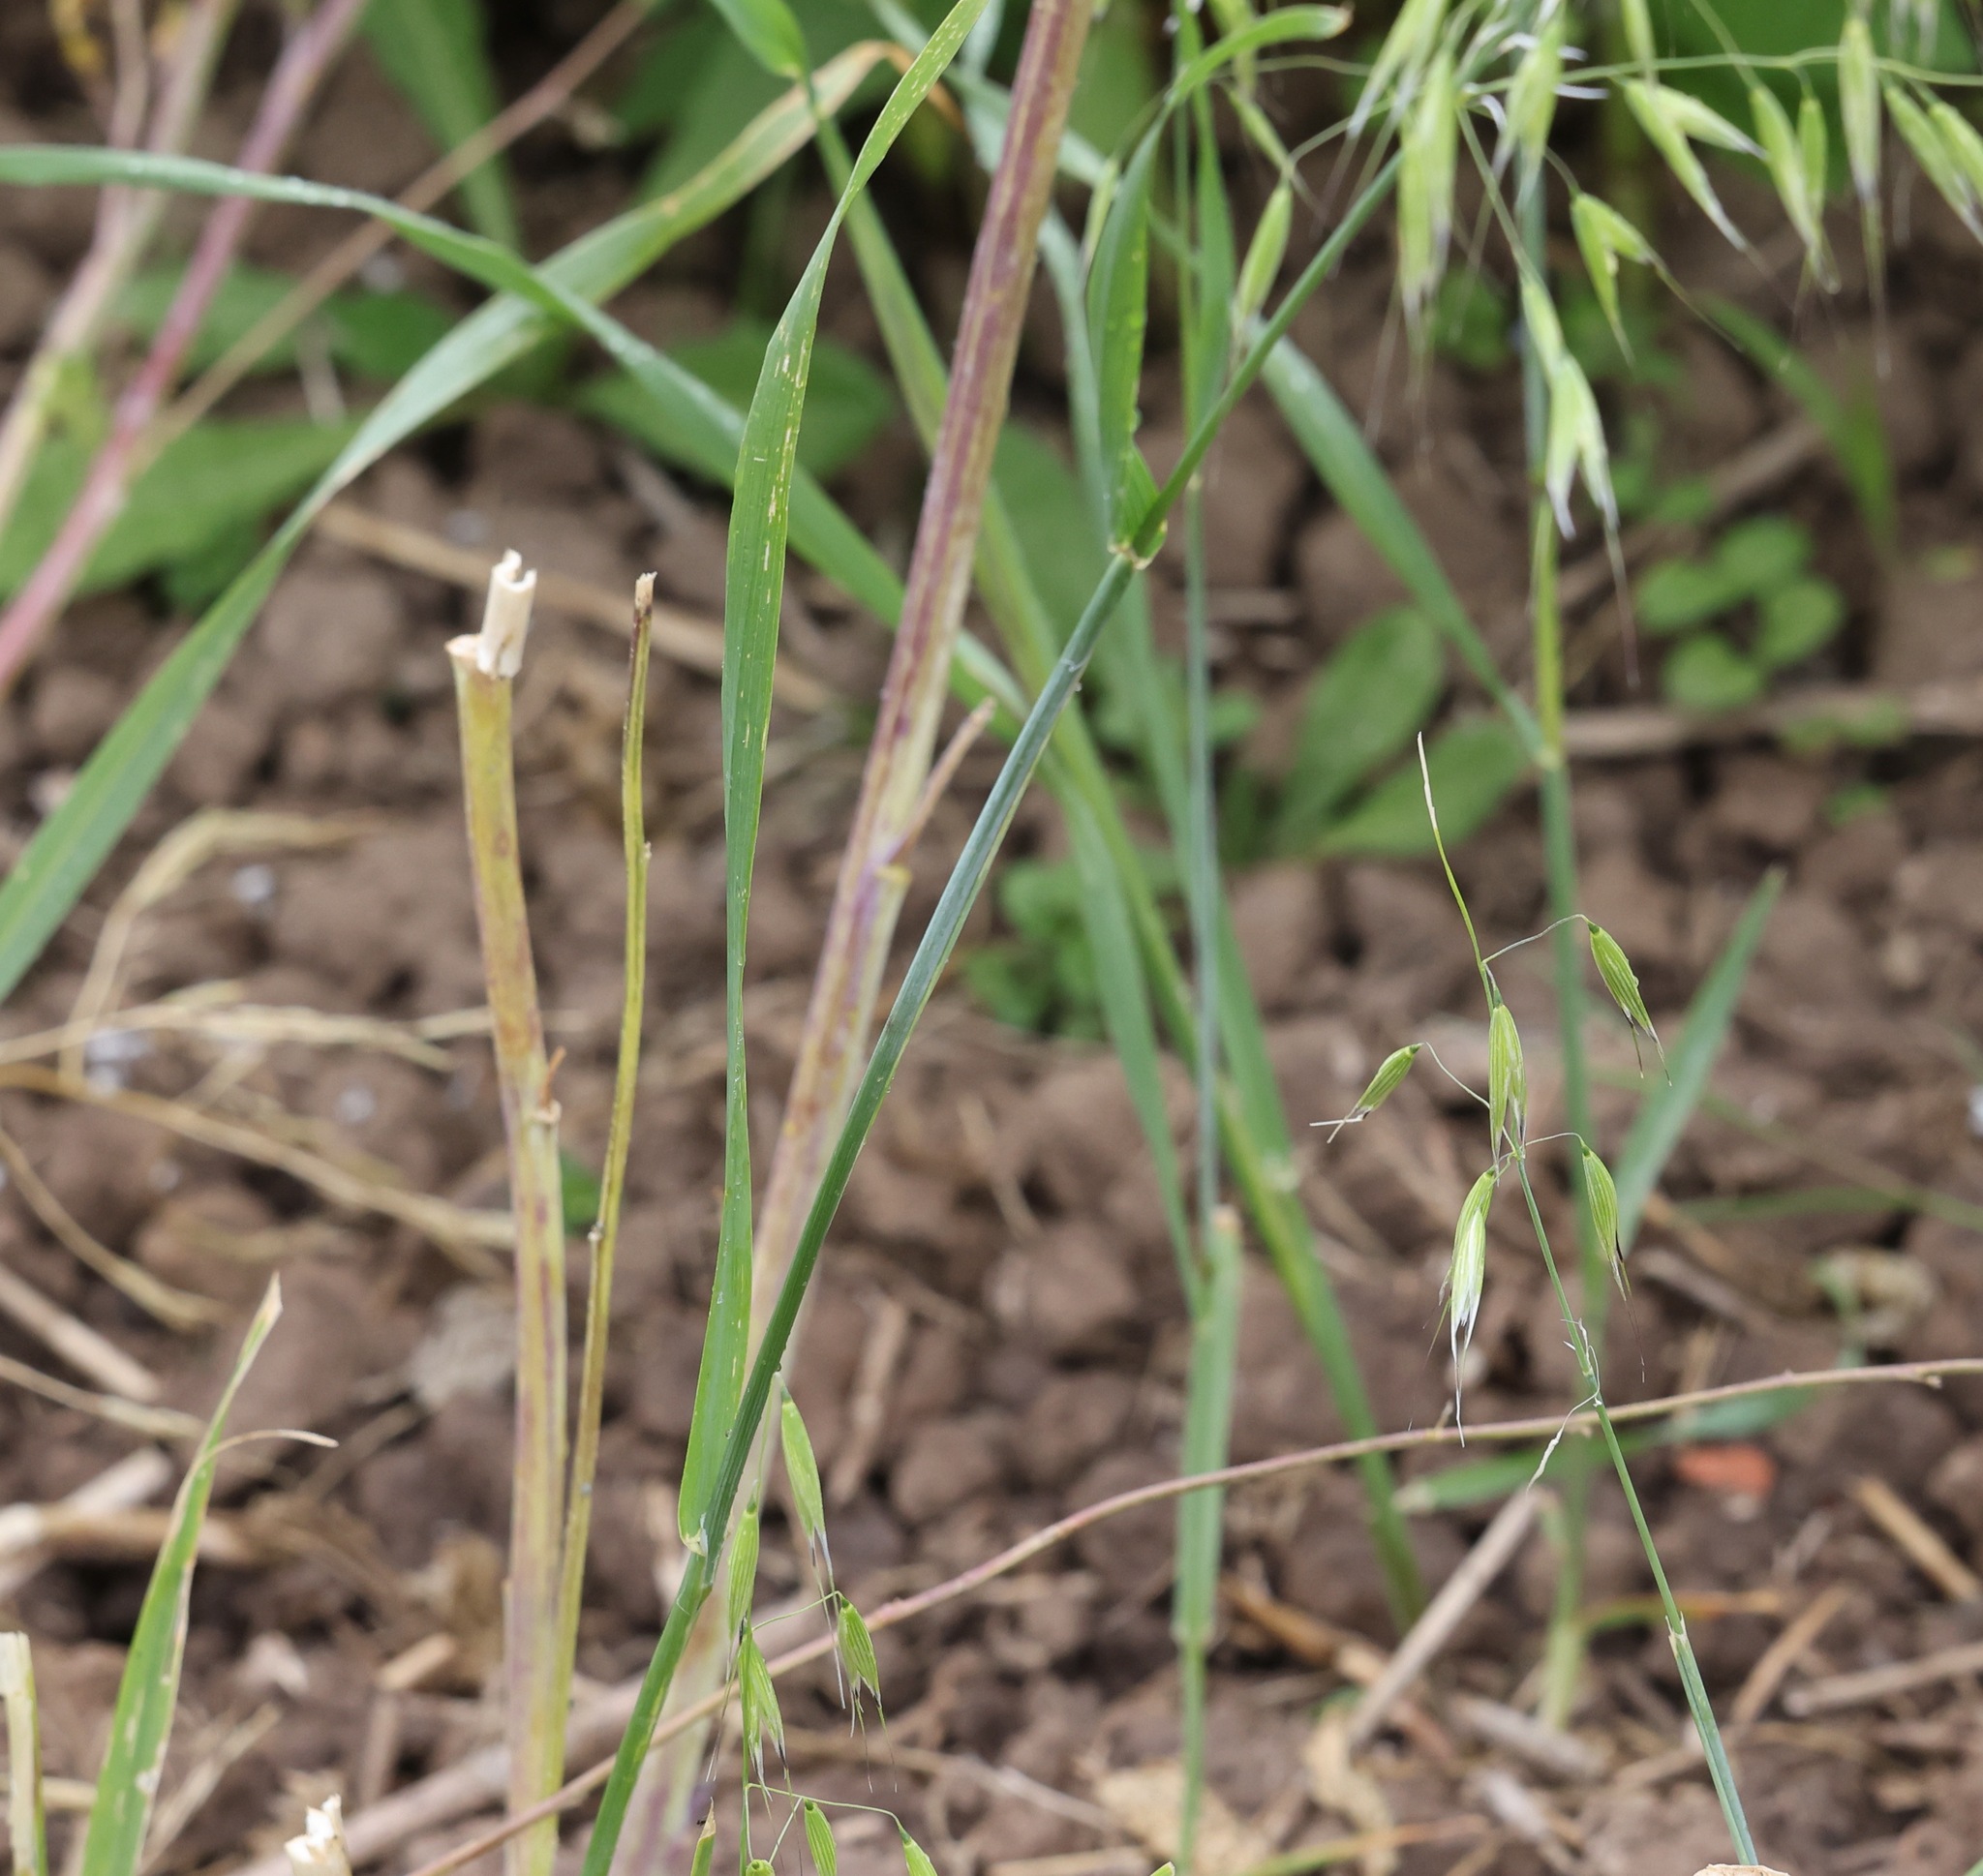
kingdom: Plantae
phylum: Tracheophyta
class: Liliopsida
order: Poales
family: Poaceae
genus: Avena
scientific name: Avena fatua
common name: Wild oat
